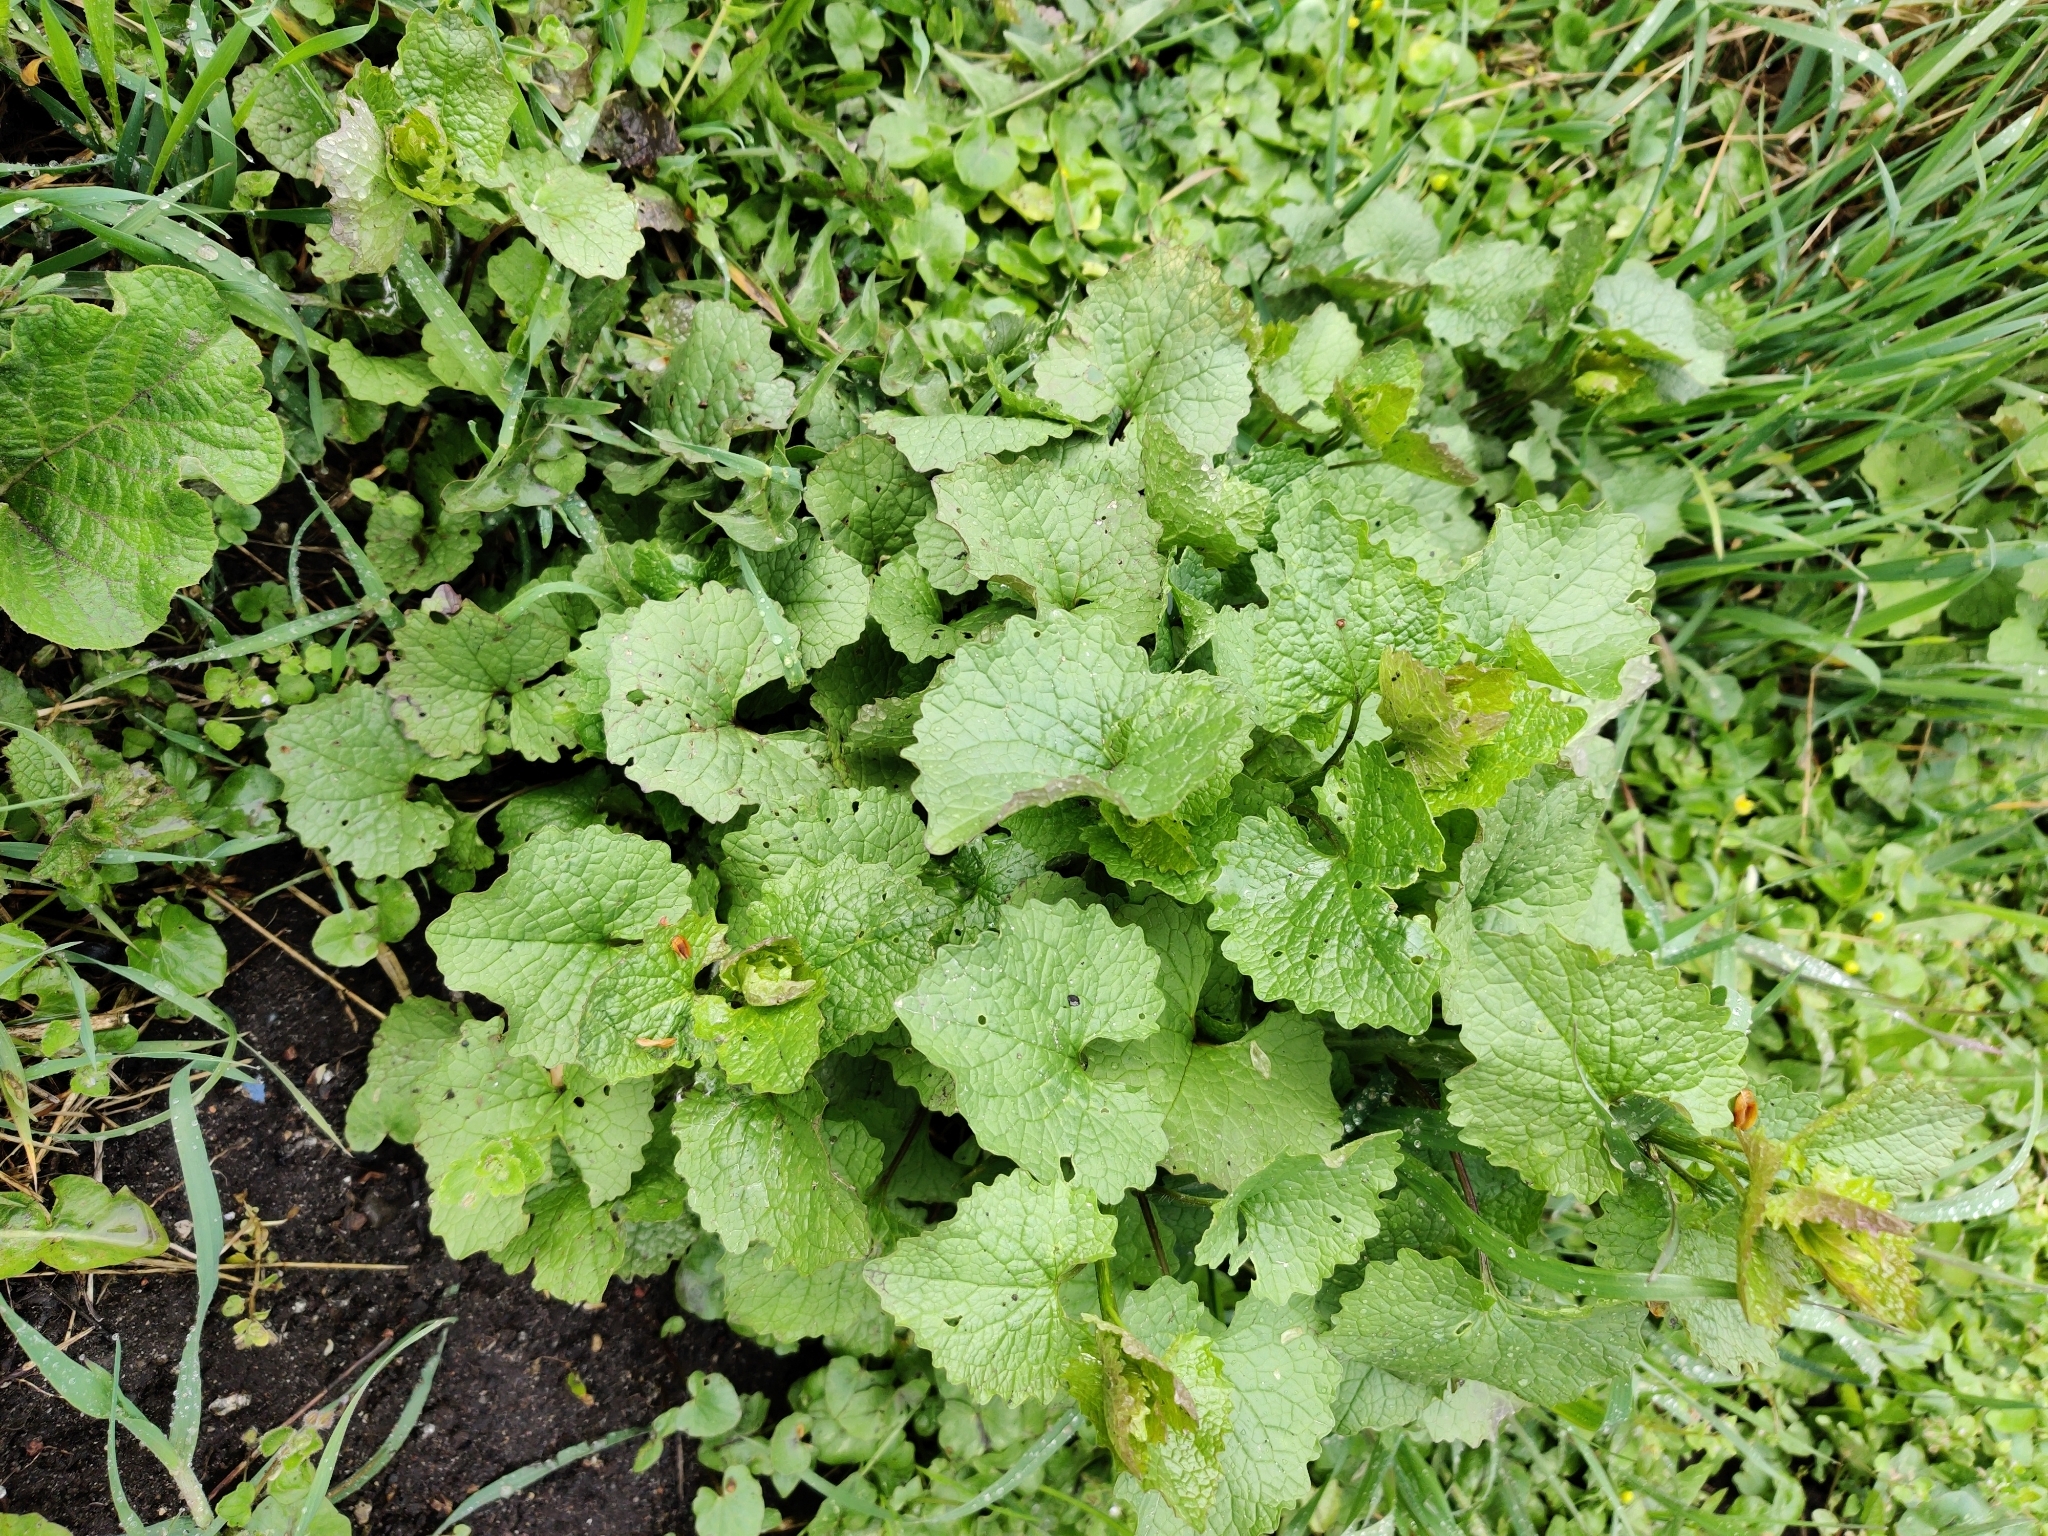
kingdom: Plantae
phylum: Tracheophyta
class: Magnoliopsida
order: Brassicales
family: Brassicaceae
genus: Alliaria
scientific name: Alliaria petiolata
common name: Garlic mustard
